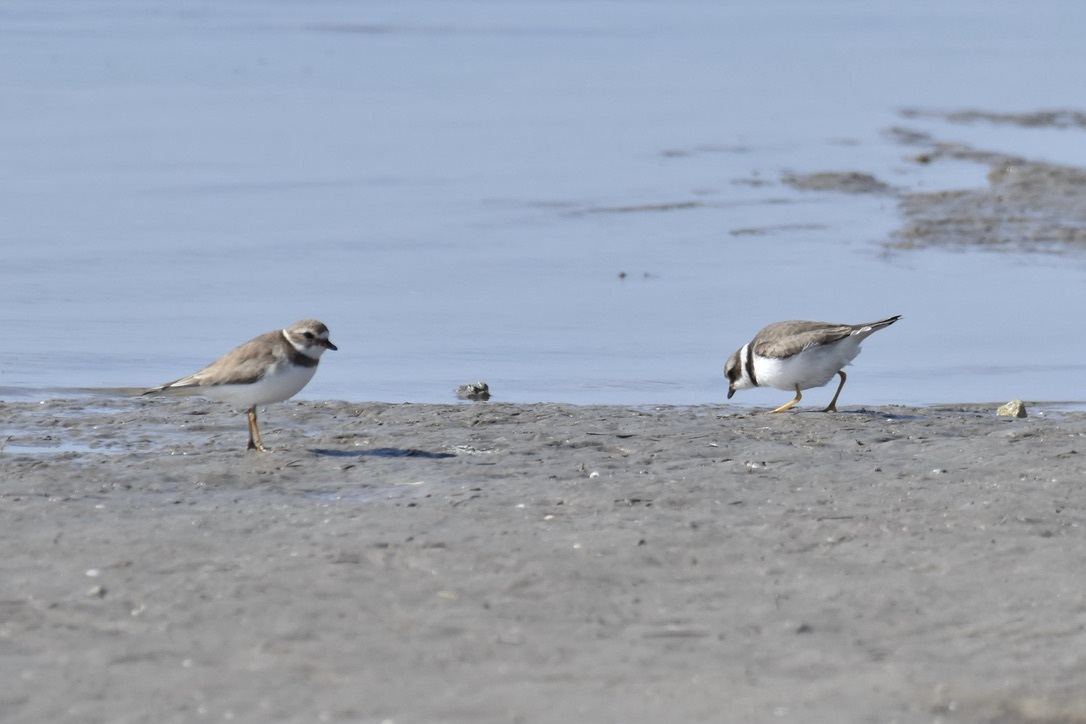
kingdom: Animalia
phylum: Chordata
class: Aves
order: Charadriiformes
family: Charadriidae
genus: Charadrius
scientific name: Charadrius semipalmatus
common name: Semipalmated plover
